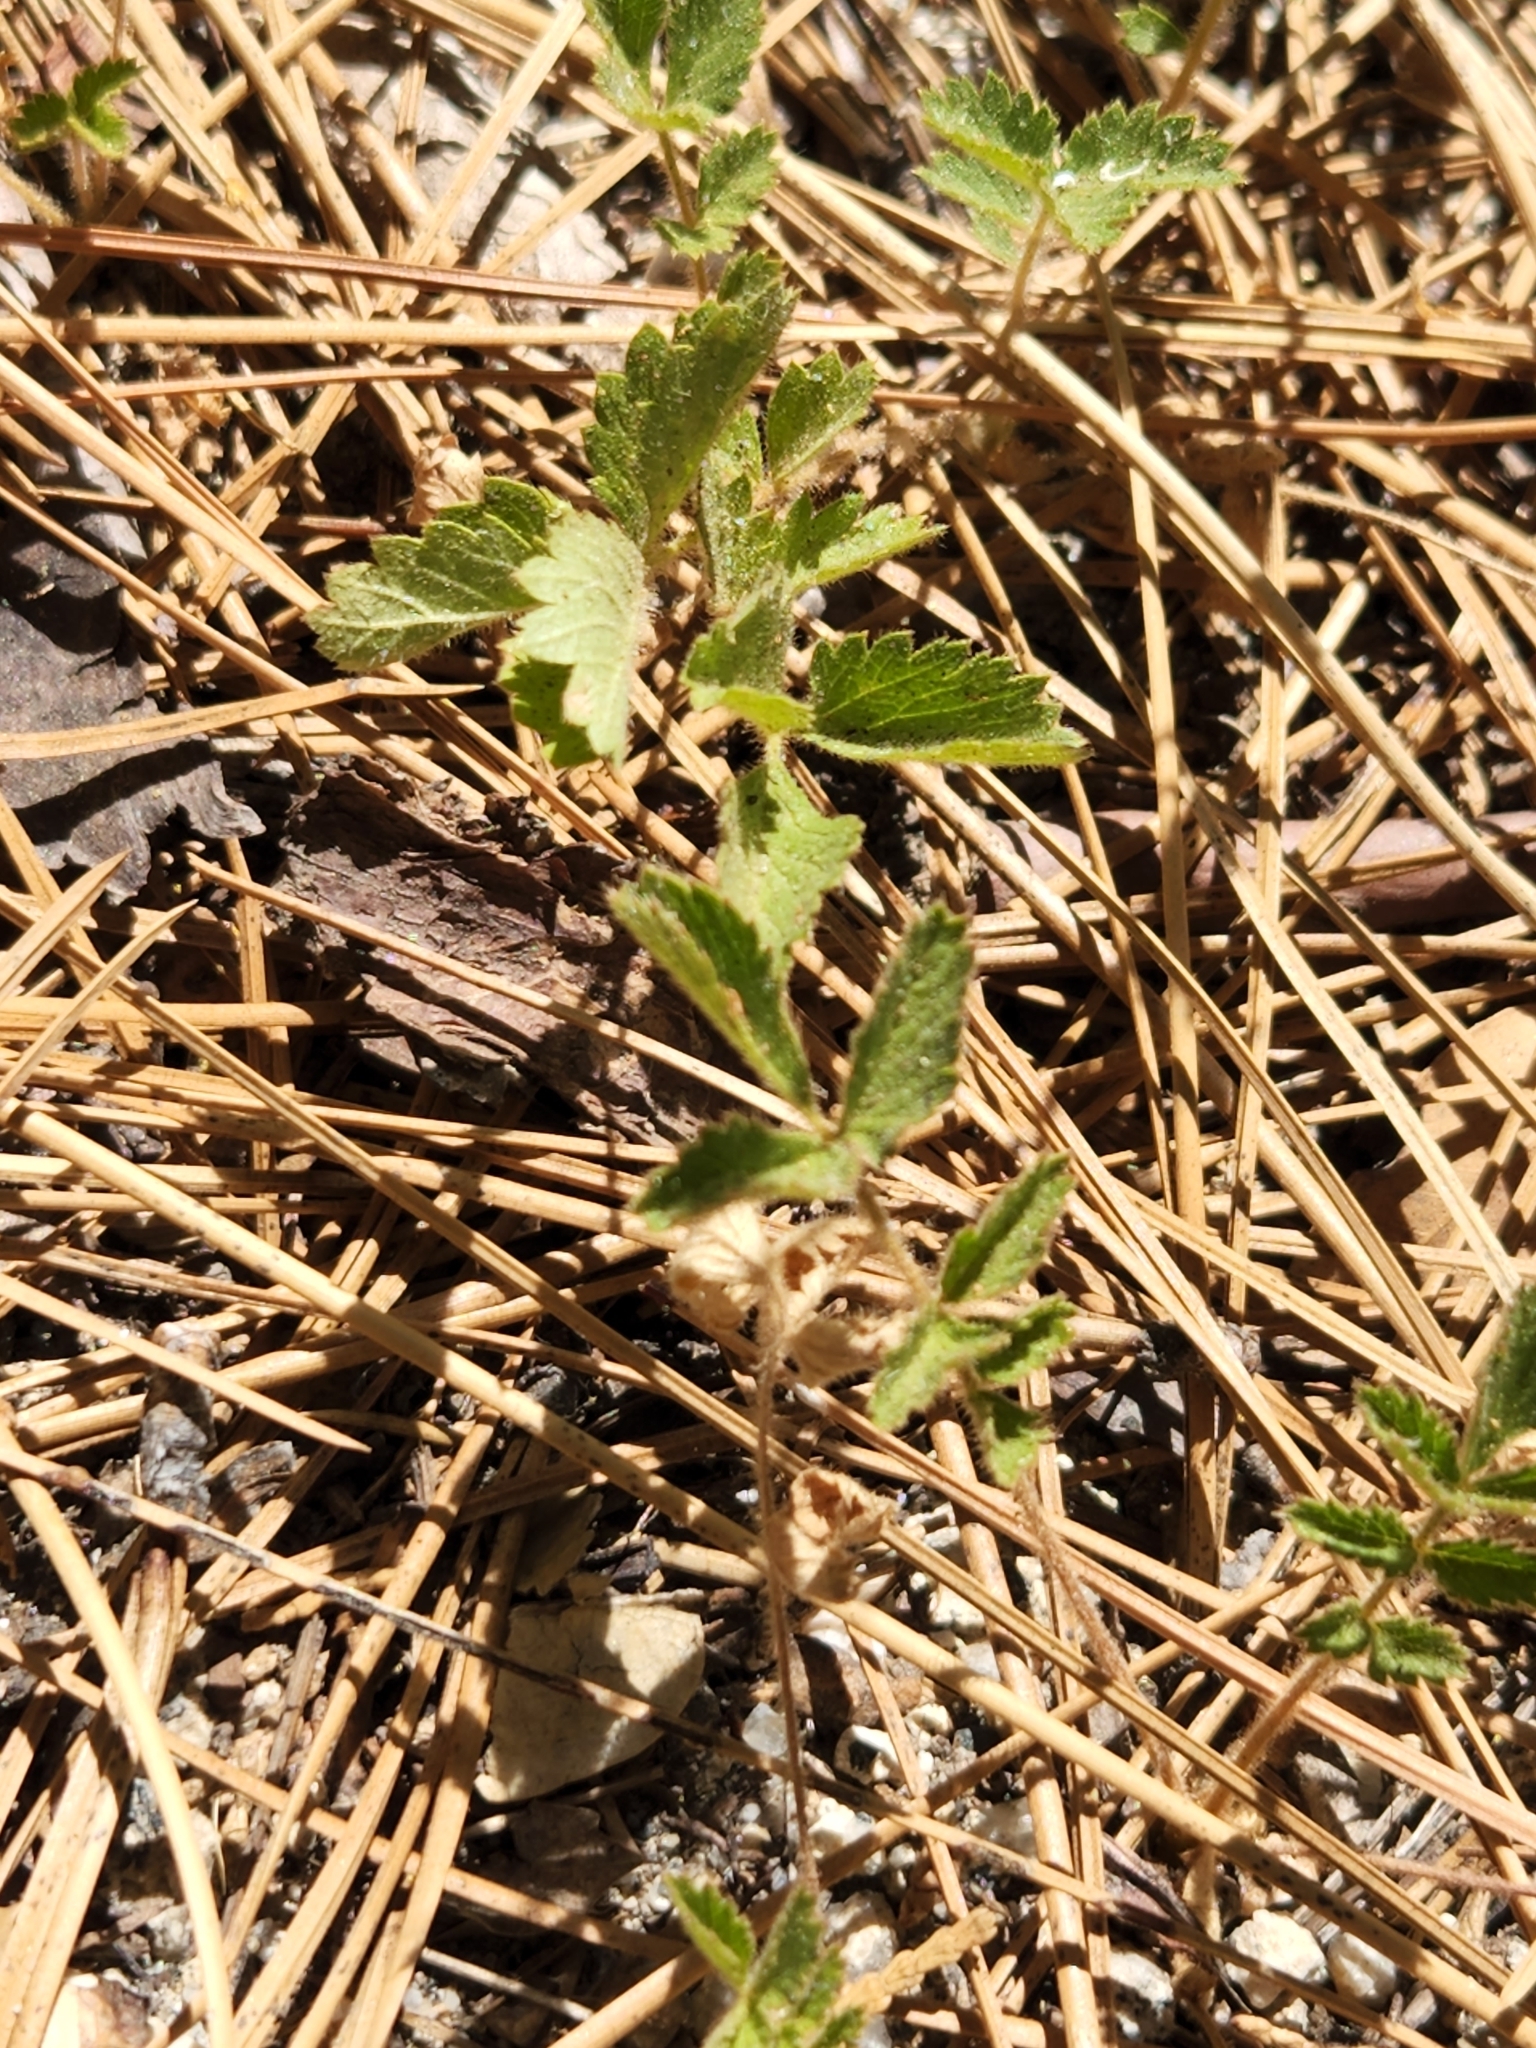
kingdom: Plantae
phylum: Tracheophyta
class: Magnoliopsida
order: Rosales
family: Rosaceae
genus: Drymocallis
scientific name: Drymocallis glandulosa
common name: Sticky cinquefoil
